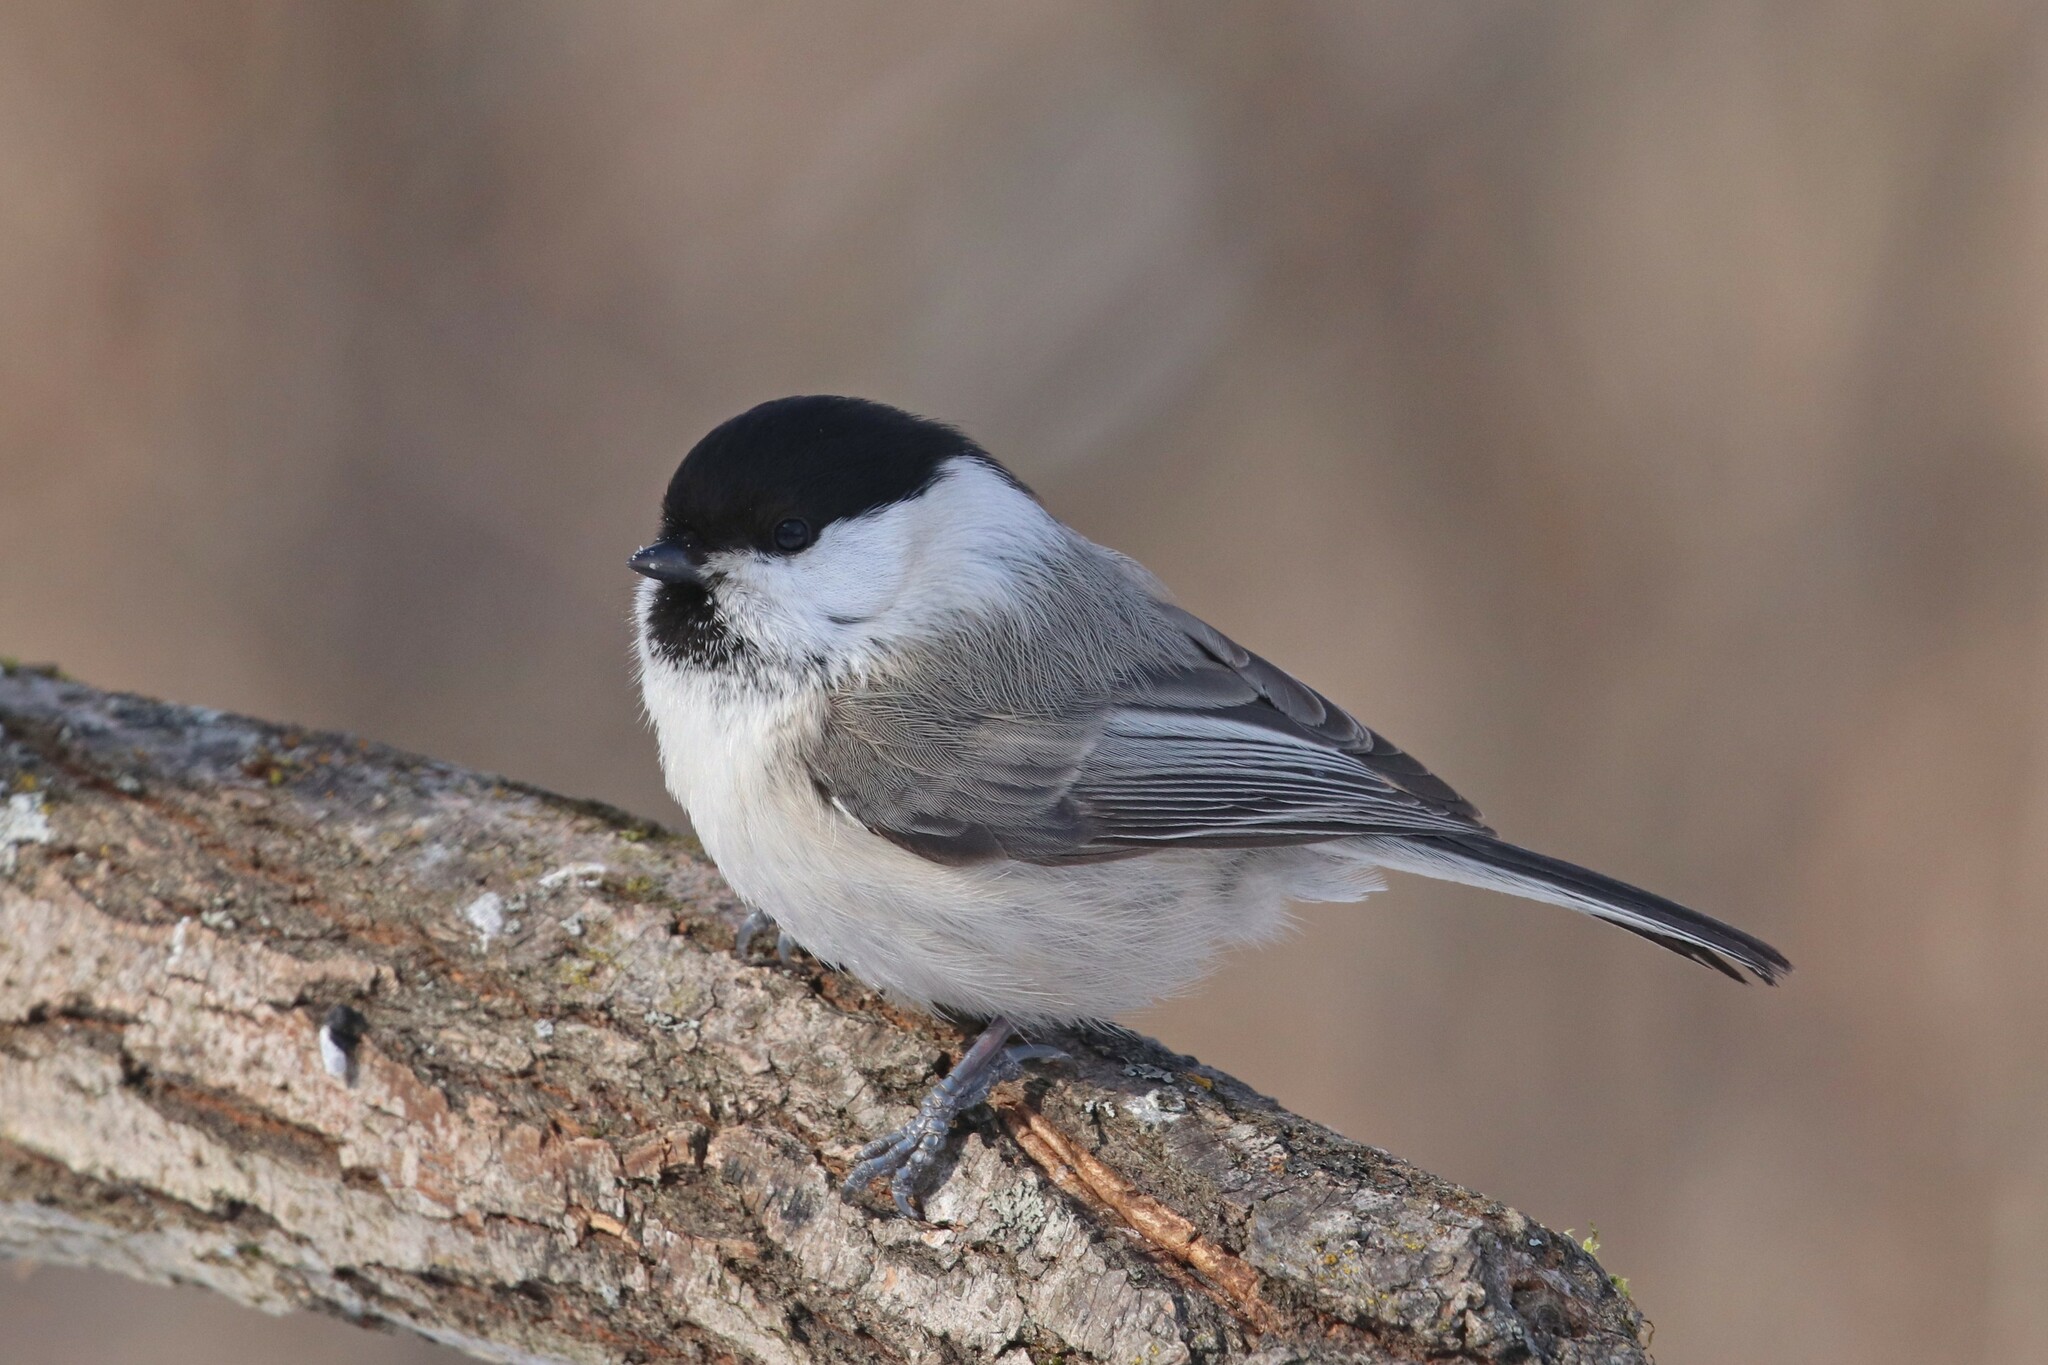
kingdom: Animalia
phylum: Chordata
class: Aves
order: Passeriformes
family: Paridae
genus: Poecile
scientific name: Poecile montanus
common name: Willow tit
